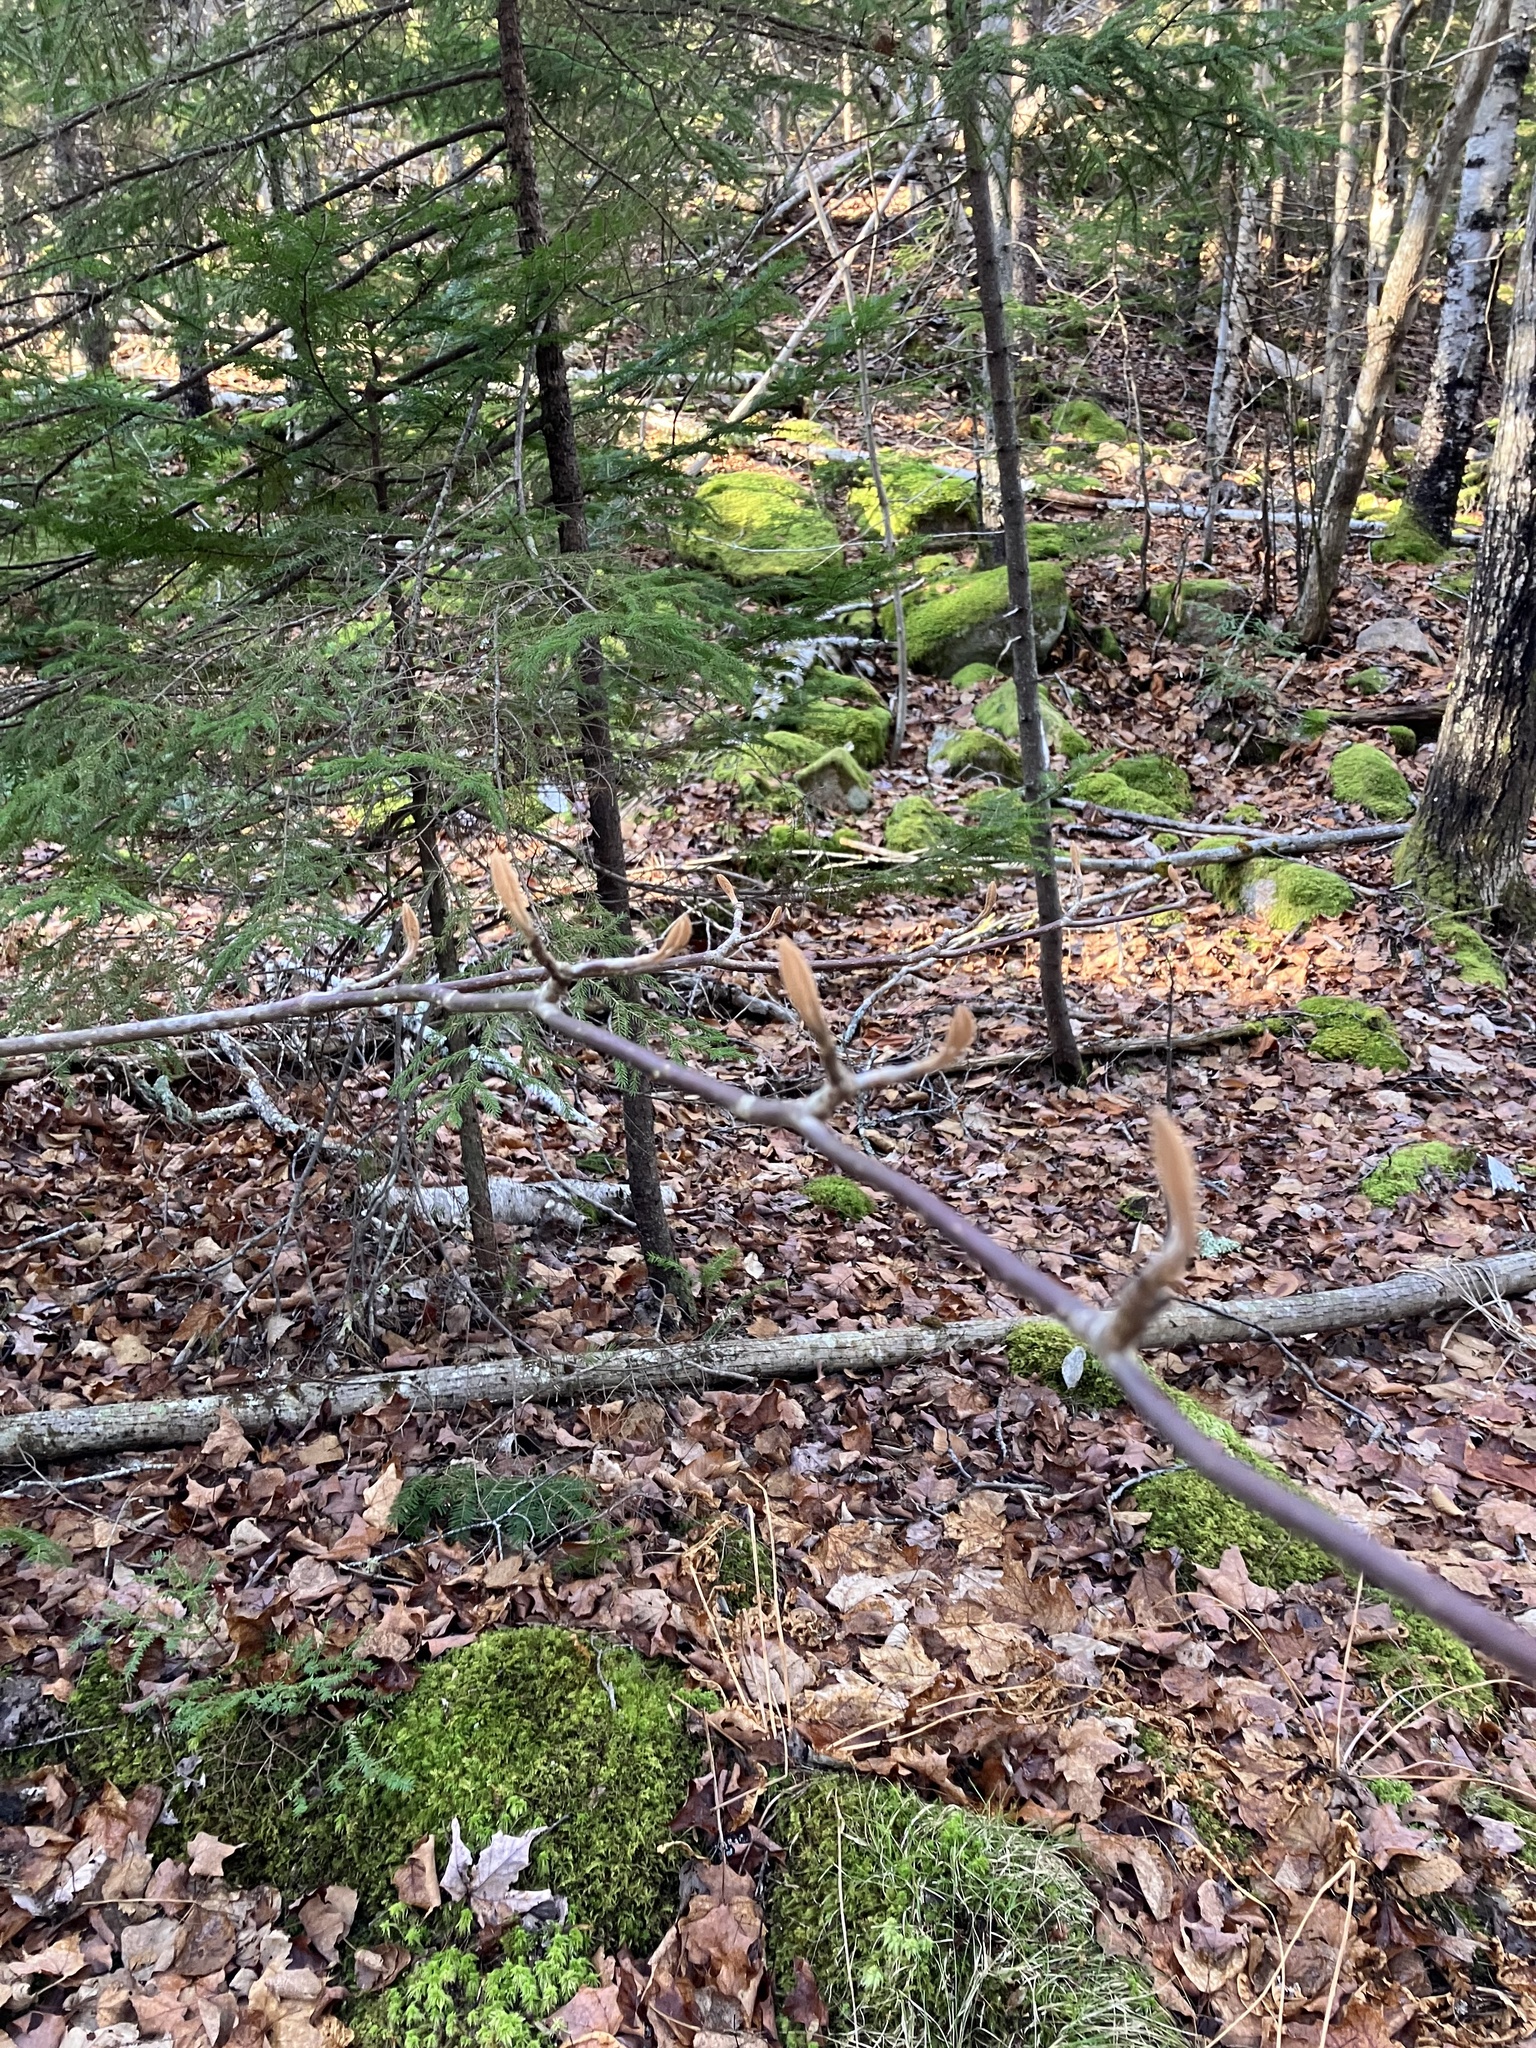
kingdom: Plantae
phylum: Tracheophyta
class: Magnoliopsida
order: Dipsacales
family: Viburnaceae
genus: Viburnum
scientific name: Viburnum lantanoides
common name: Hobblebush
